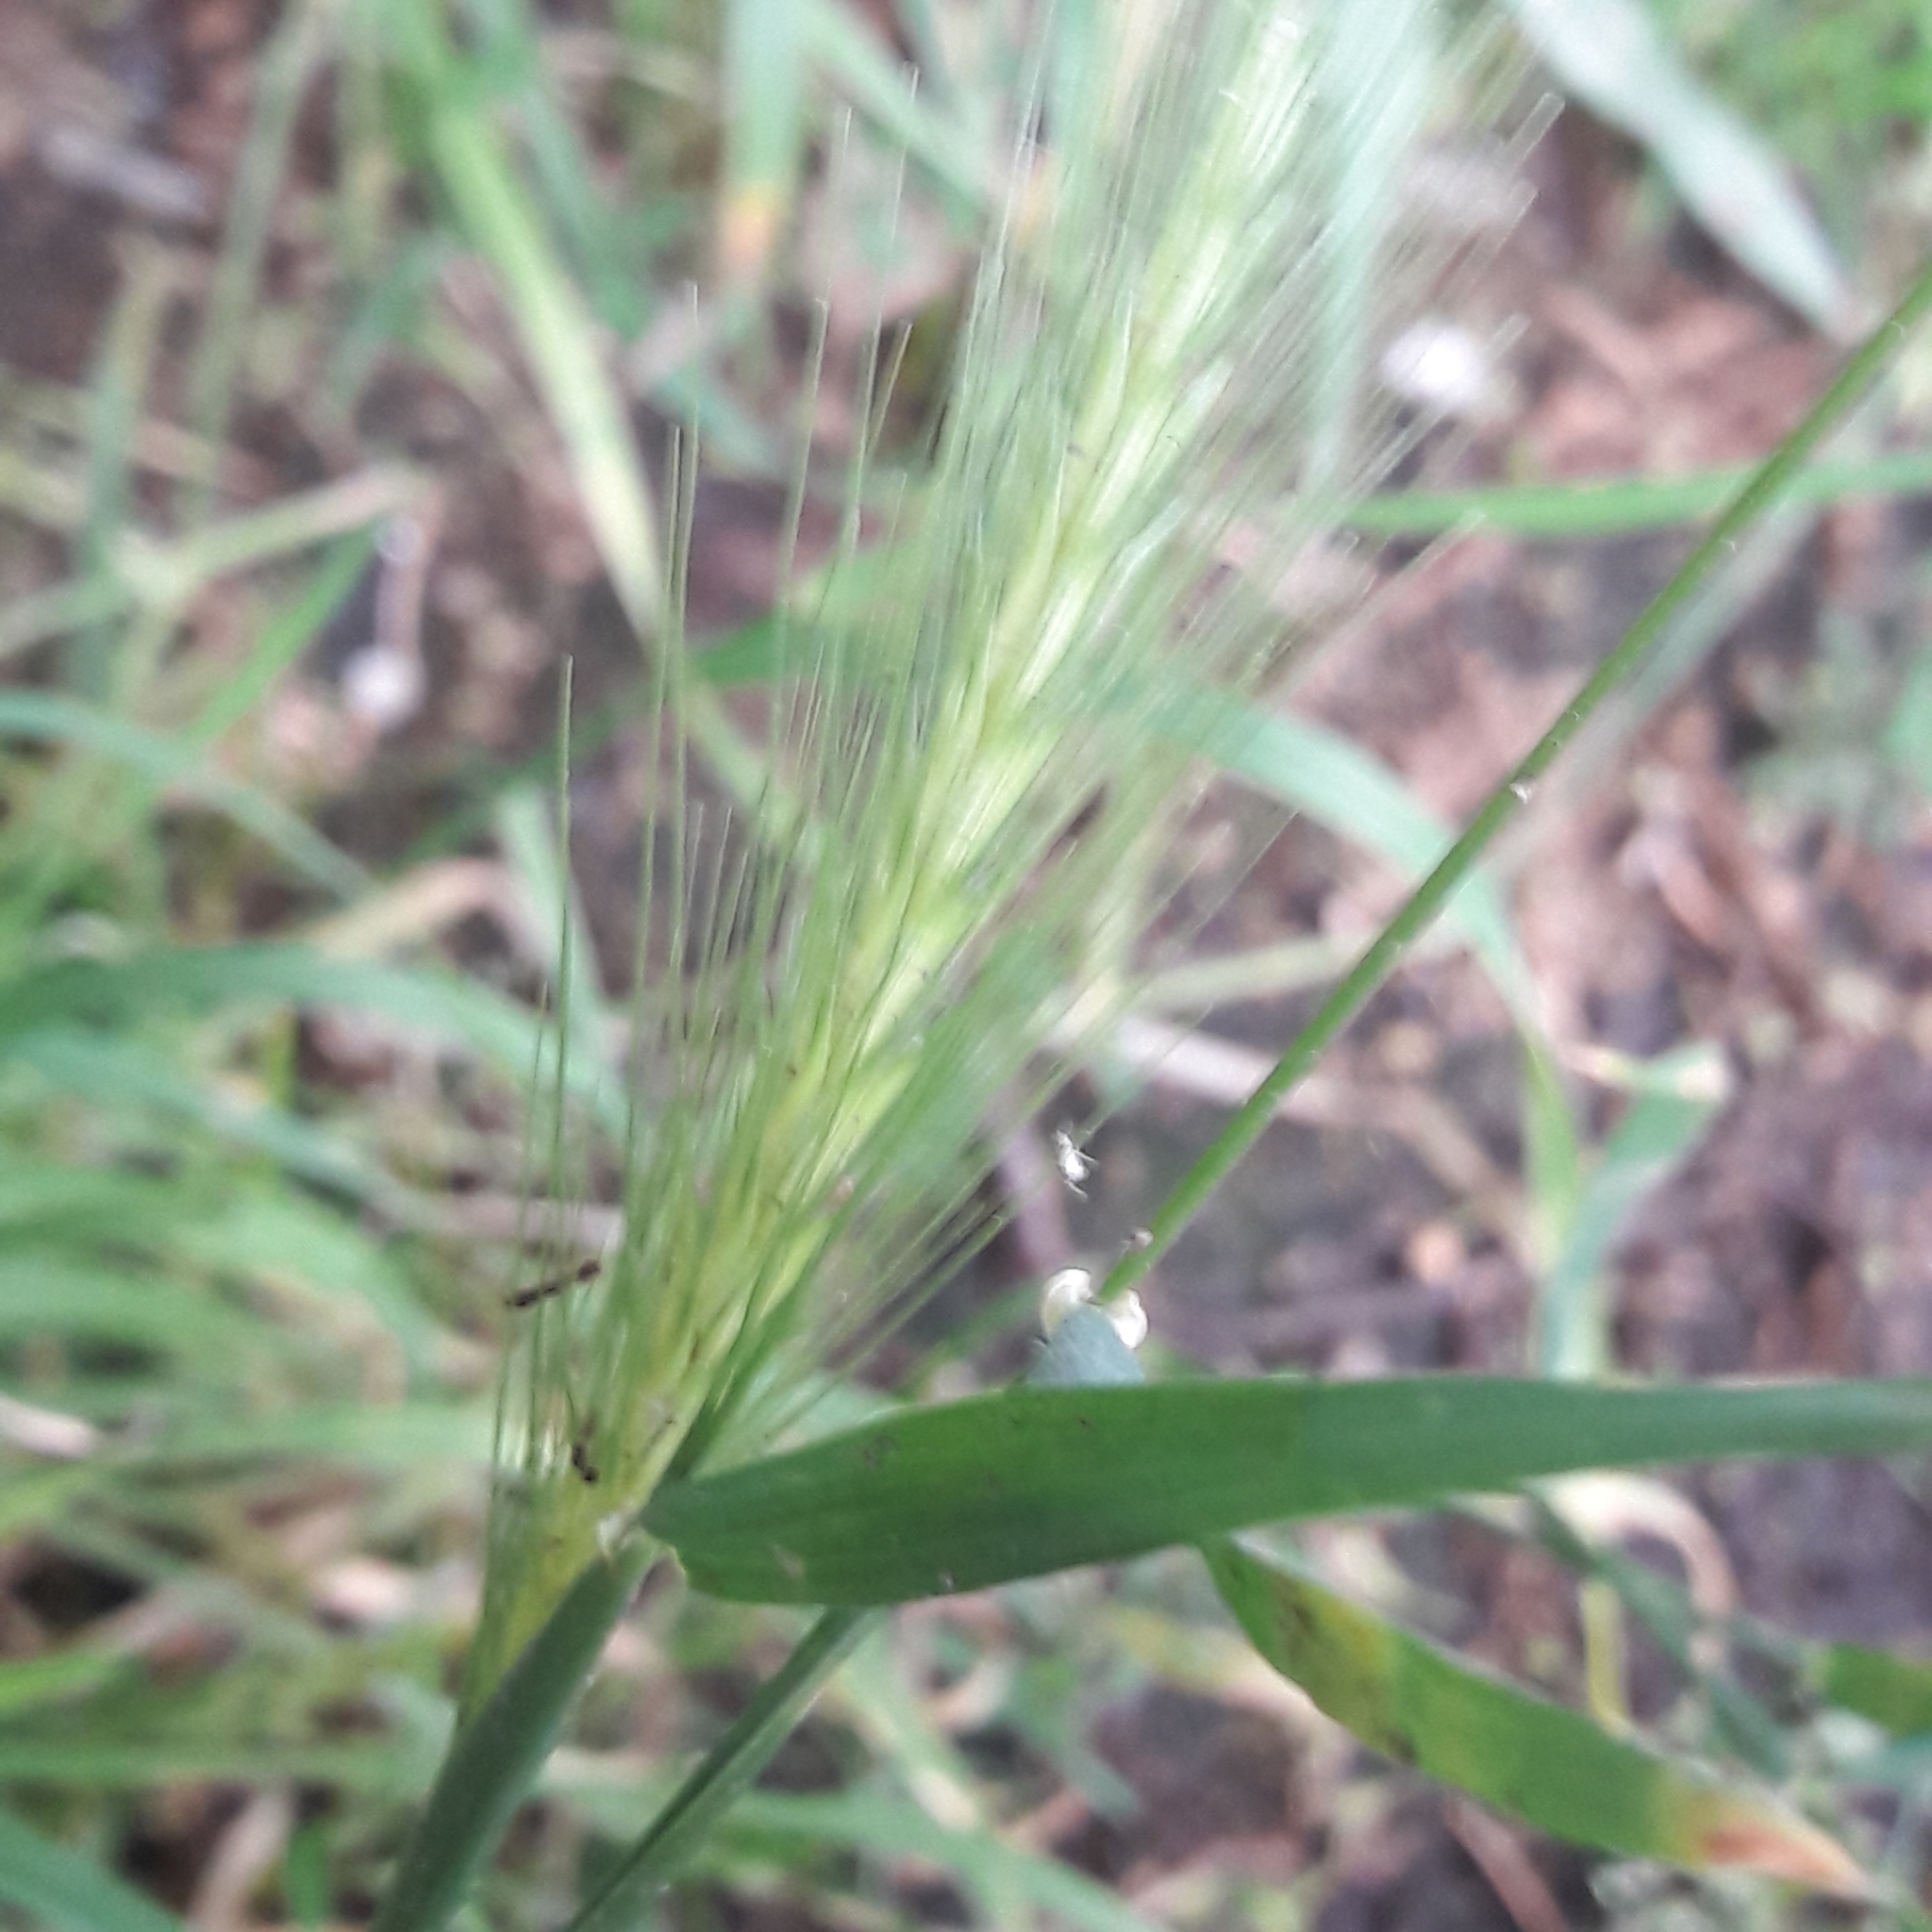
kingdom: Plantae
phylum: Tracheophyta
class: Liliopsida
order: Poales
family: Poaceae
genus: Hordeum
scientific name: Hordeum murinum
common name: Wall barley
